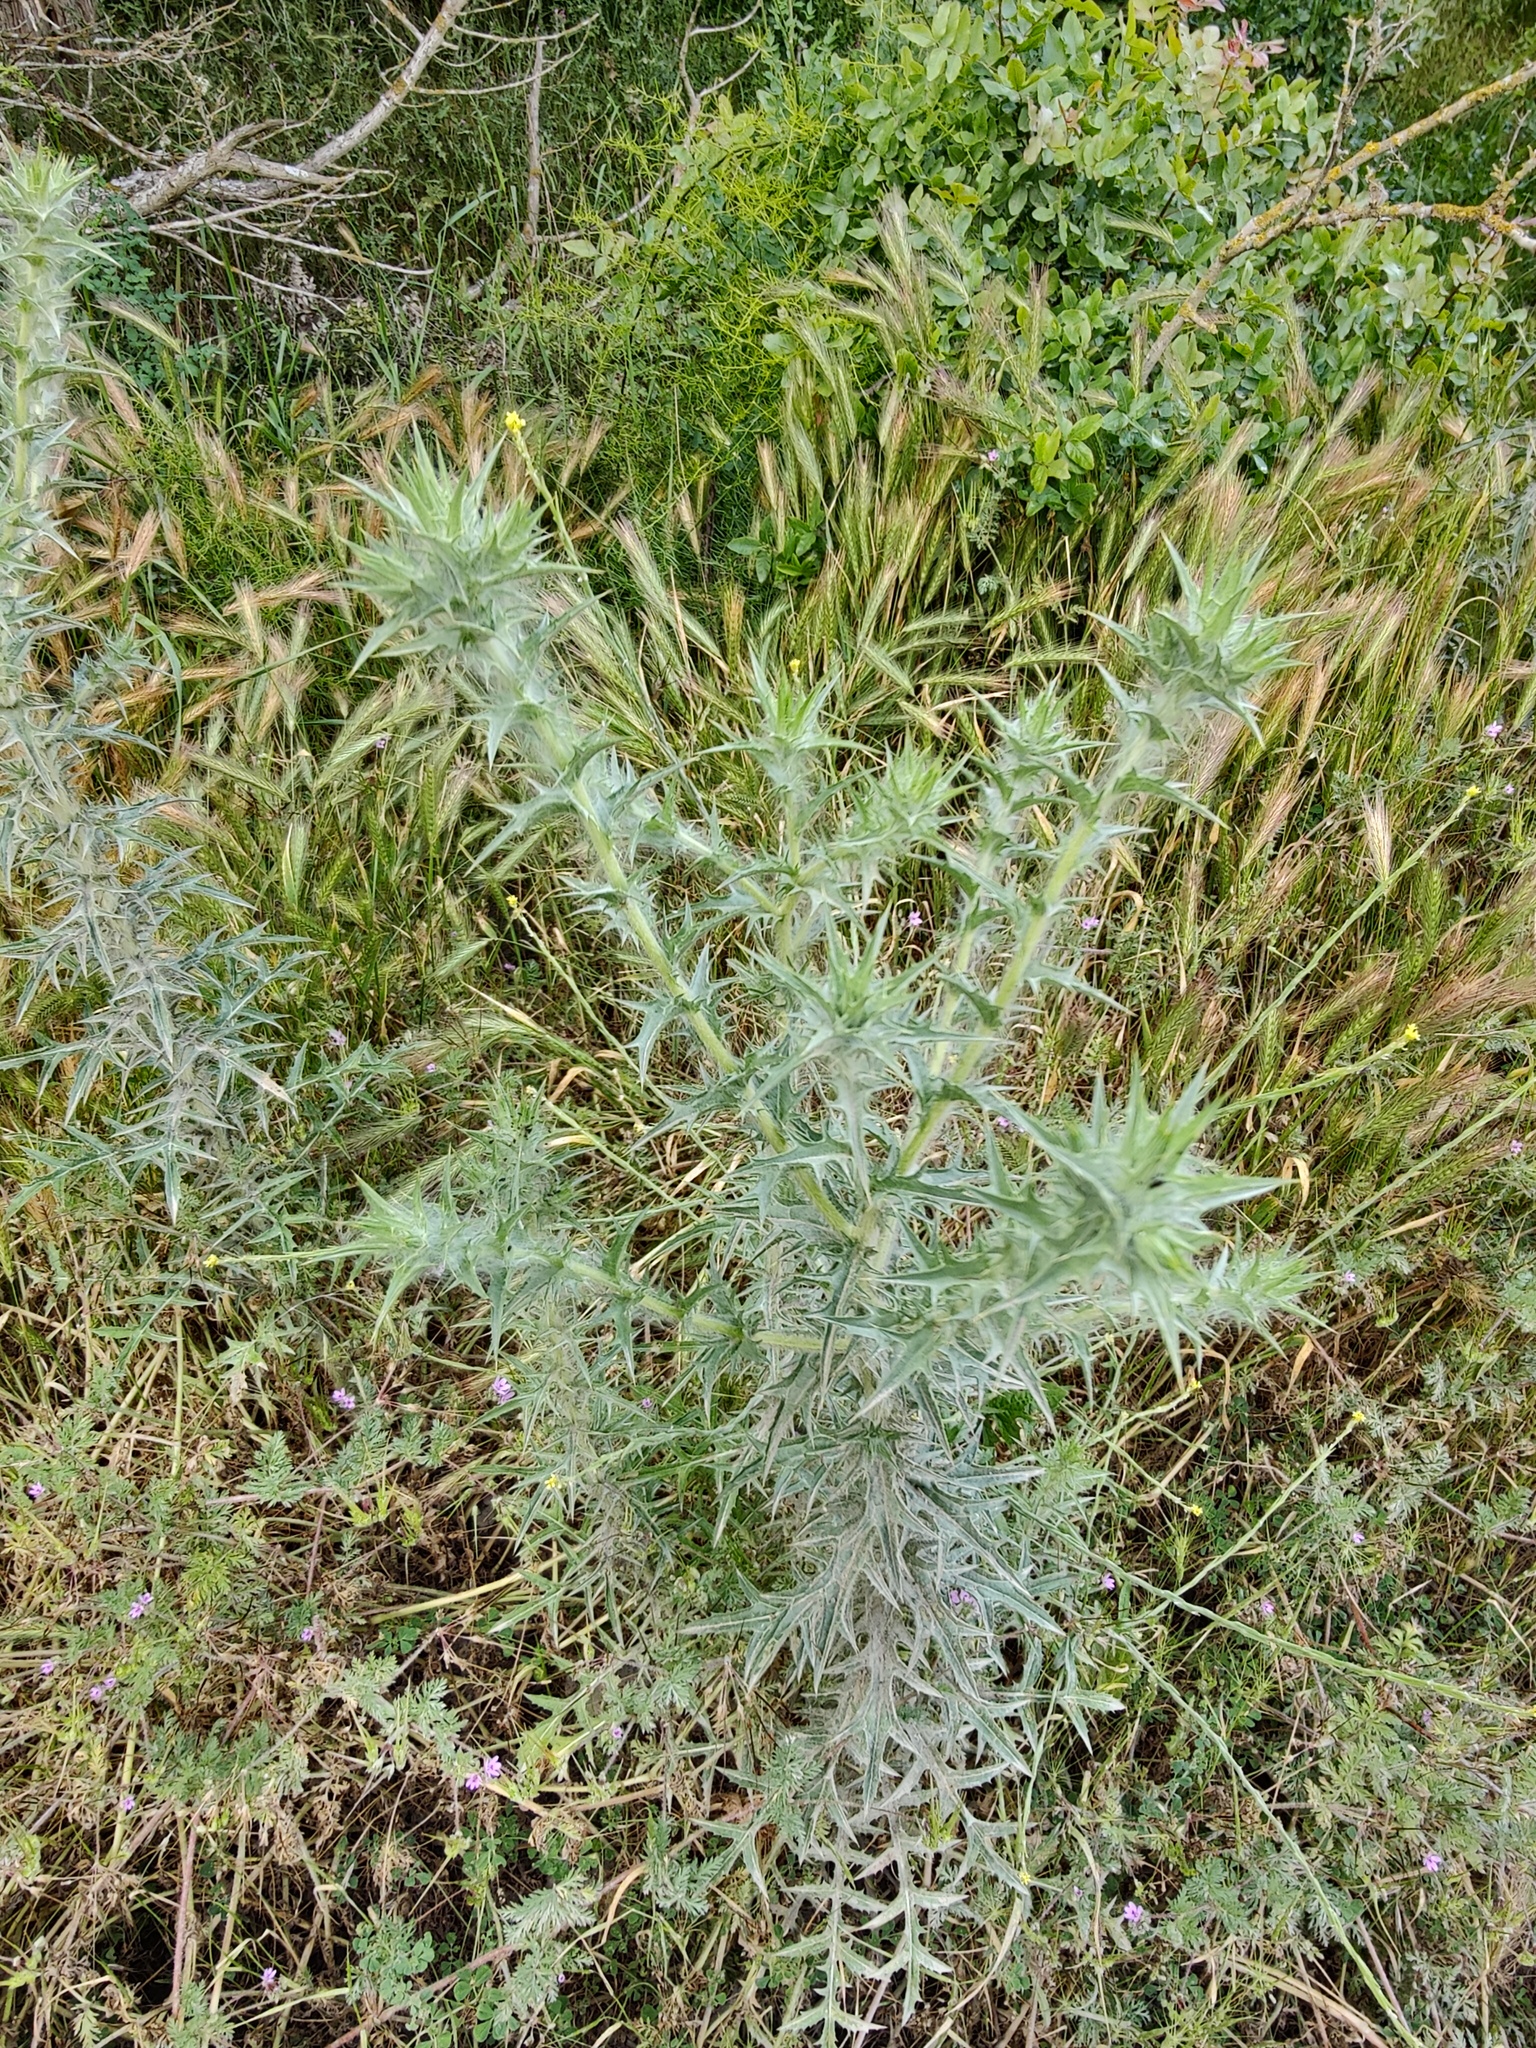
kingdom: Plantae
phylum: Tracheophyta
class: Magnoliopsida
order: Asterales
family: Asteraceae
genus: Carthamus
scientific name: Carthamus lanatus
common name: Downy safflower
